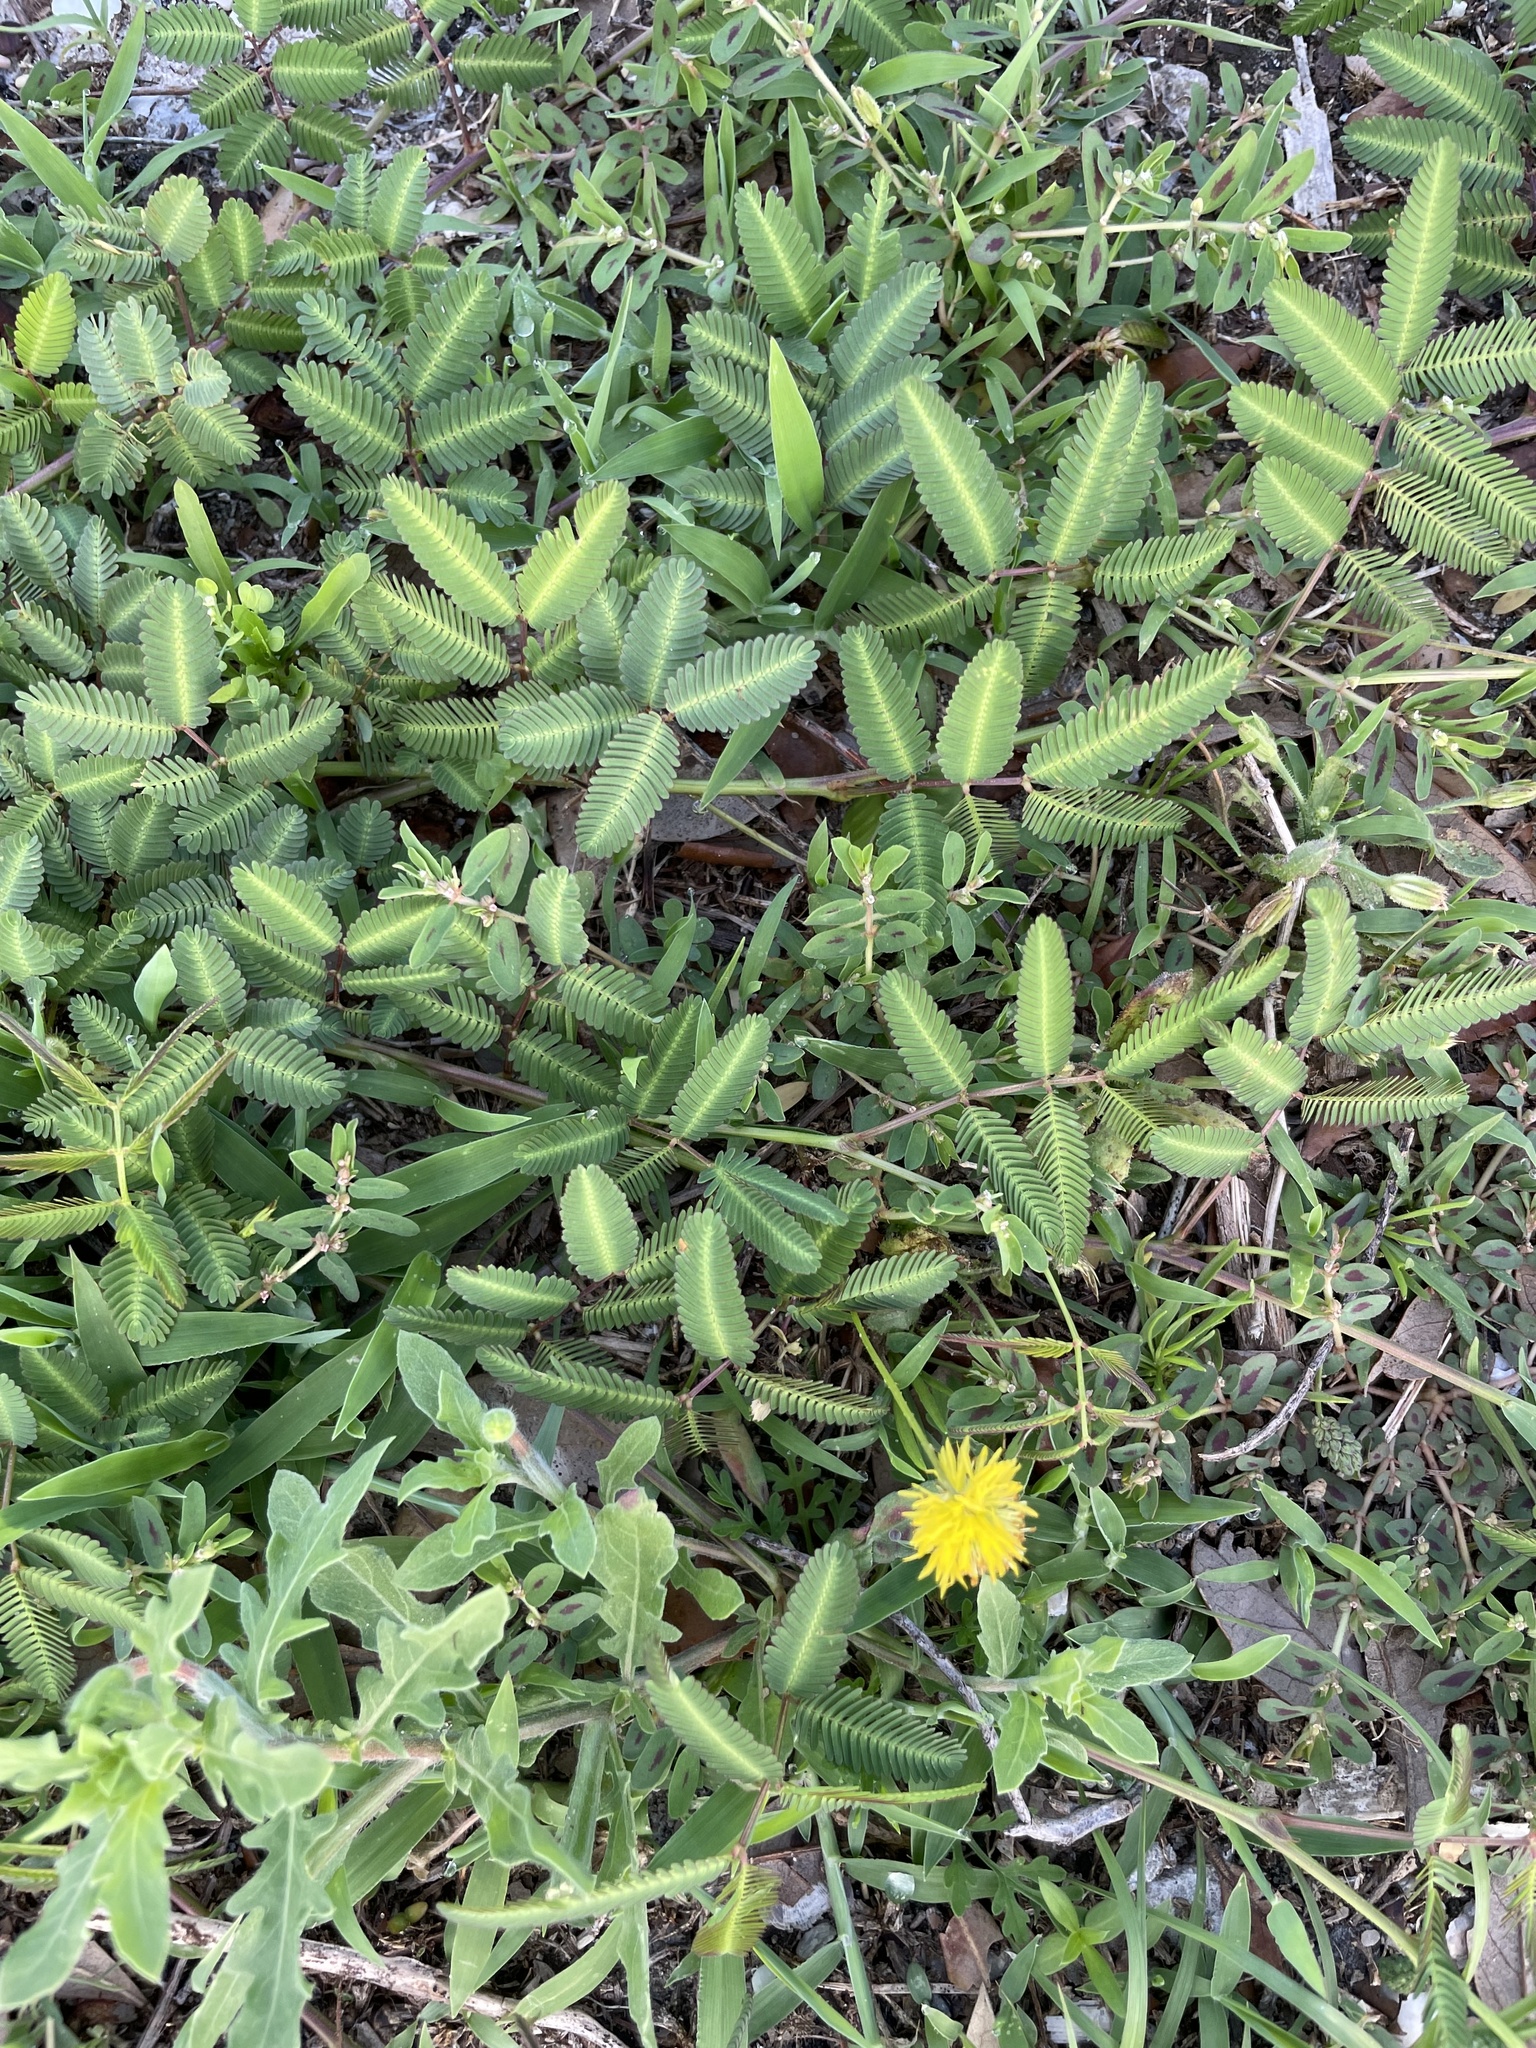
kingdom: Plantae
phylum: Tracheophyta
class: Magnoliopsida
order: Fabales
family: Fabaceae
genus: Neptunia
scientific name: Neptunia pubescens
